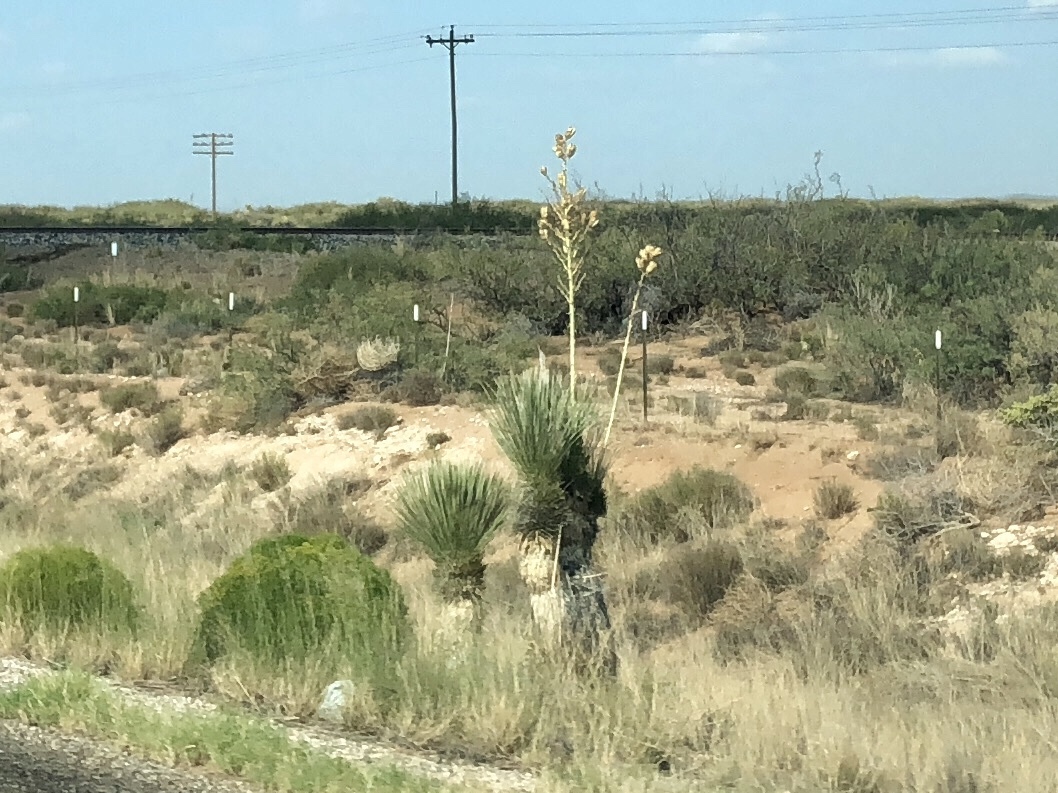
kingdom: Plantae
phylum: Tracheophyta
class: Liliopsida
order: Asparagales
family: Asparagaceae
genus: Yucca
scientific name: Yucca elata
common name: Palmella
